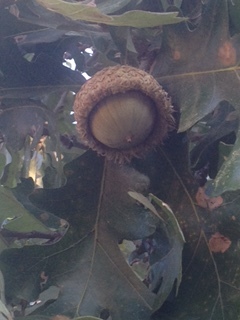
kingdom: Plantae
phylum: Tracheophyta
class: Magnoliopsida
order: Fagales
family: Fagaceae
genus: Quercus
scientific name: Quercus macrocarpa
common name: Bur oak
